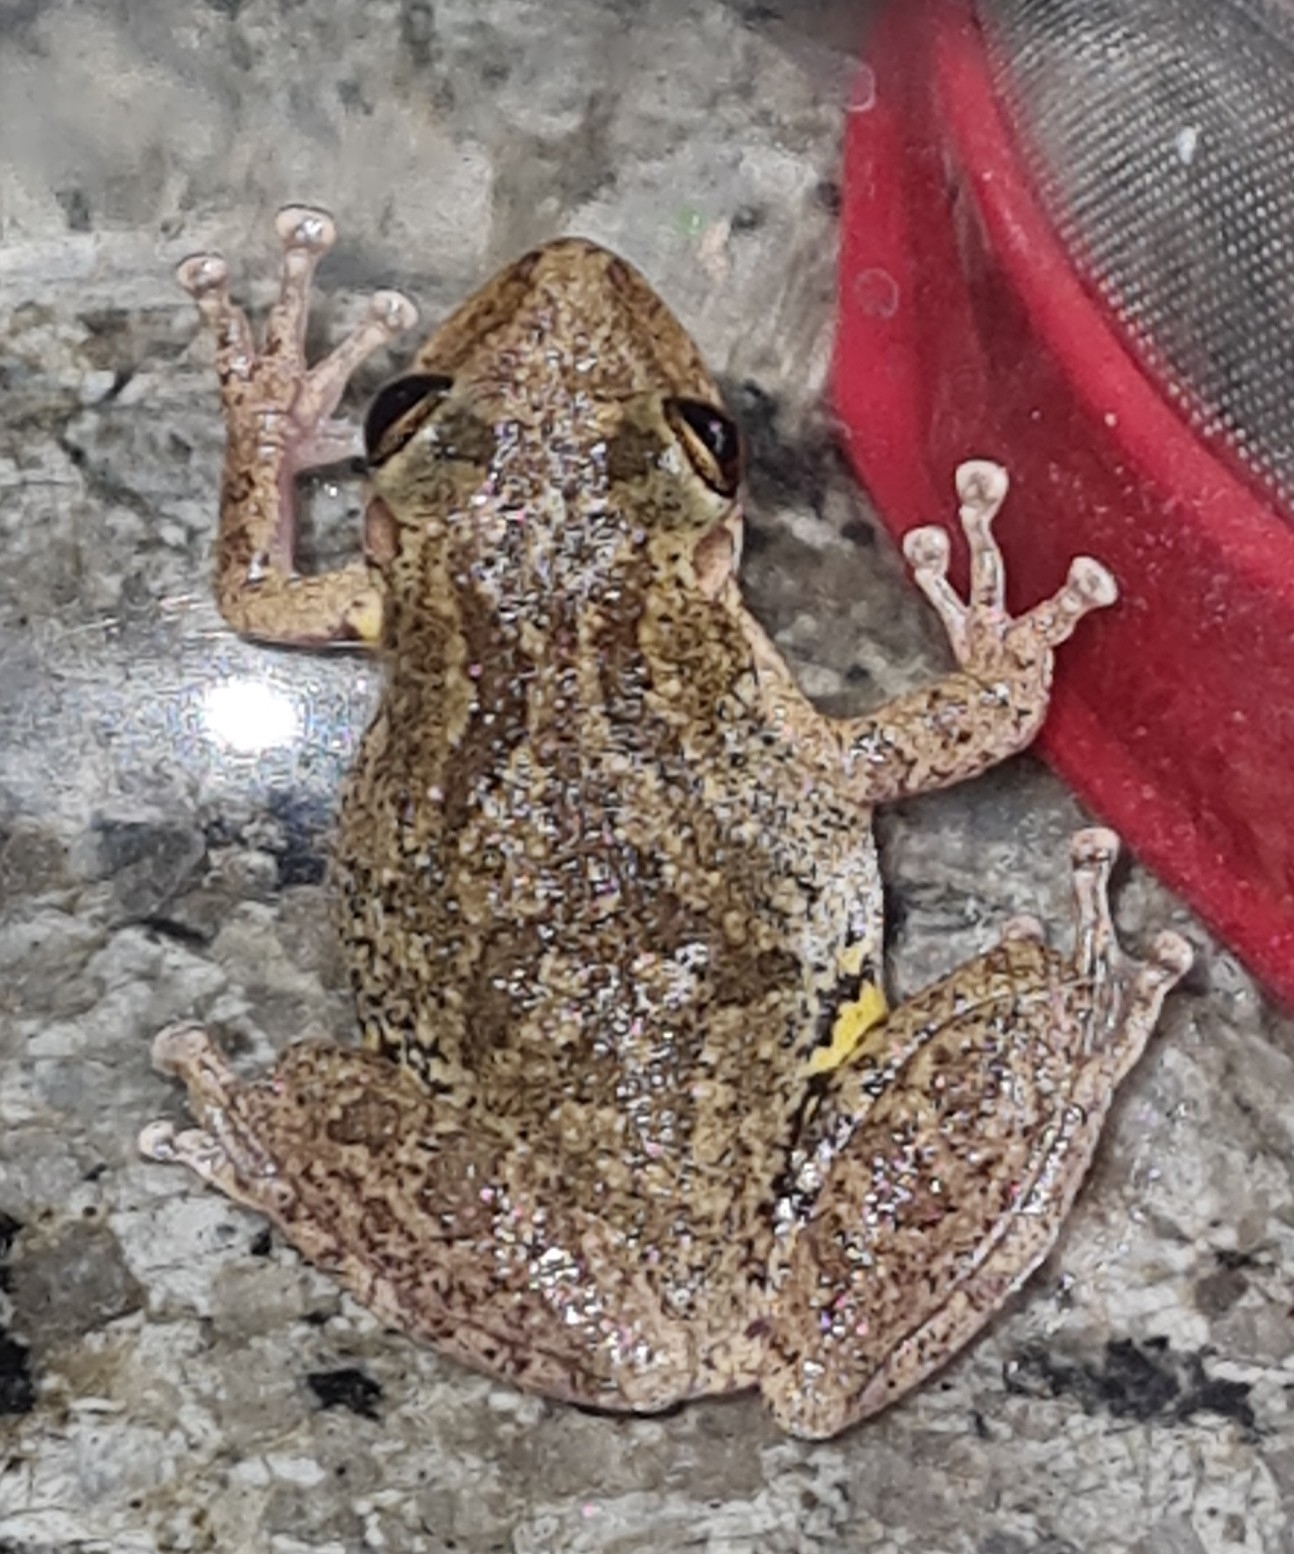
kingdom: Animalia
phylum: Chordata
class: Amphibia
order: Anura
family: Hylidae
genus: Scinax
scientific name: Scinax x-signatus
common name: Venezuela snouted treefrog
